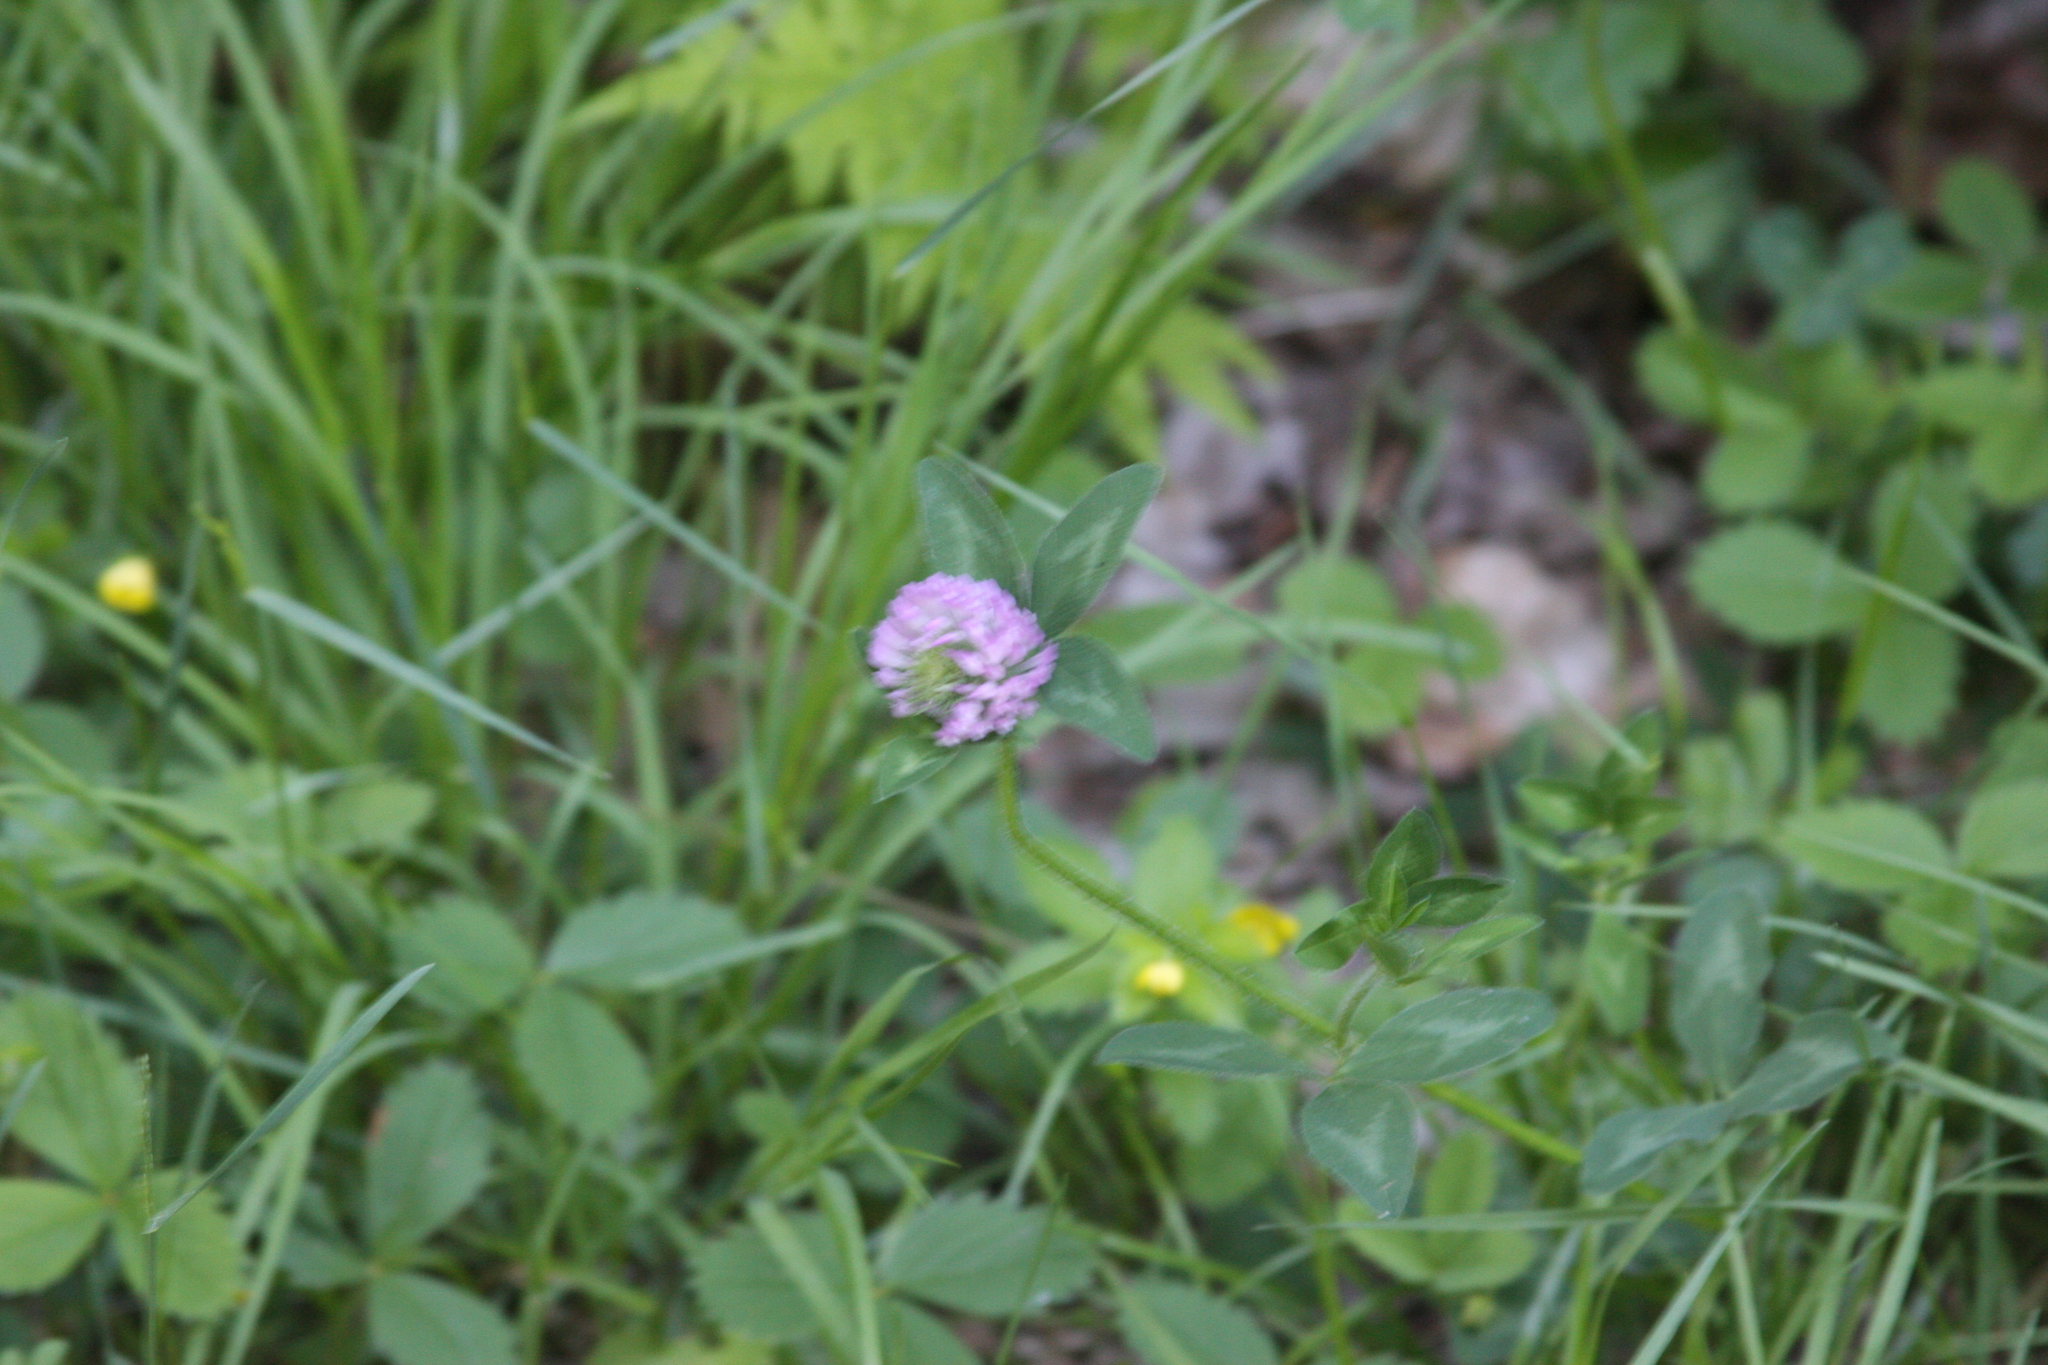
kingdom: Plantae
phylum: Tracheophyta
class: Magnoliopsida
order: Fabales
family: Fabaceae
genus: Trifolium
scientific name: Trifolium pratense
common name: Red clover
